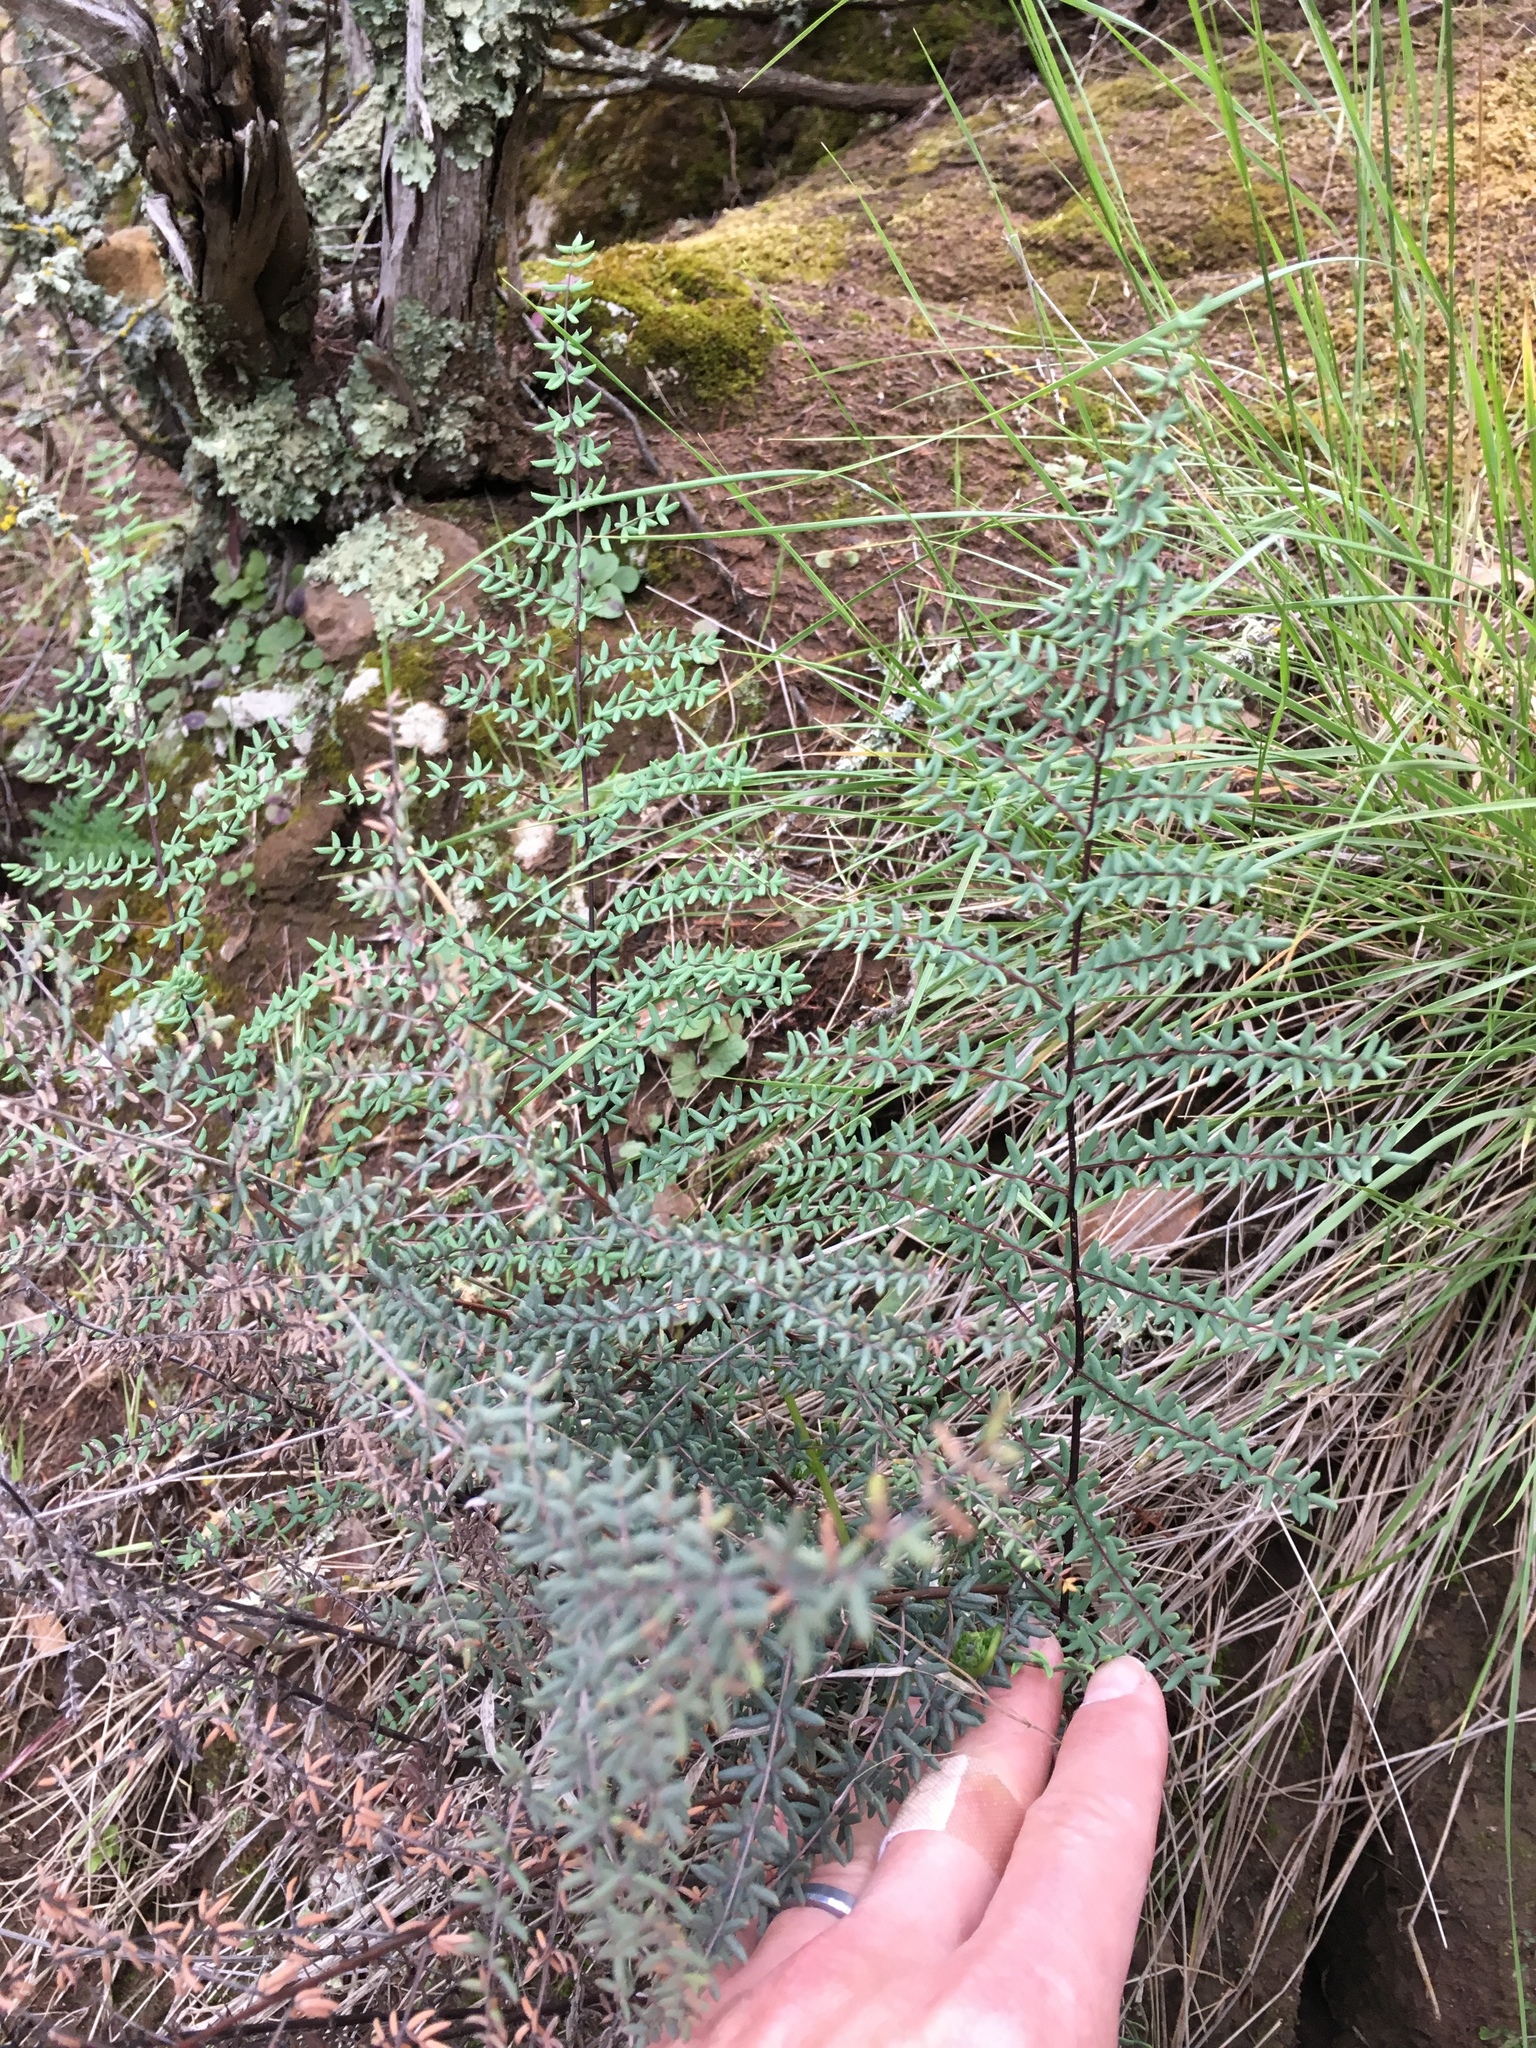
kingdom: Plantae
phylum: Tracheophyta
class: Polypodiopsida
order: Polypodiales
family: Pteridaceae
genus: Pellaea
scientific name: Pellaea mucronata
